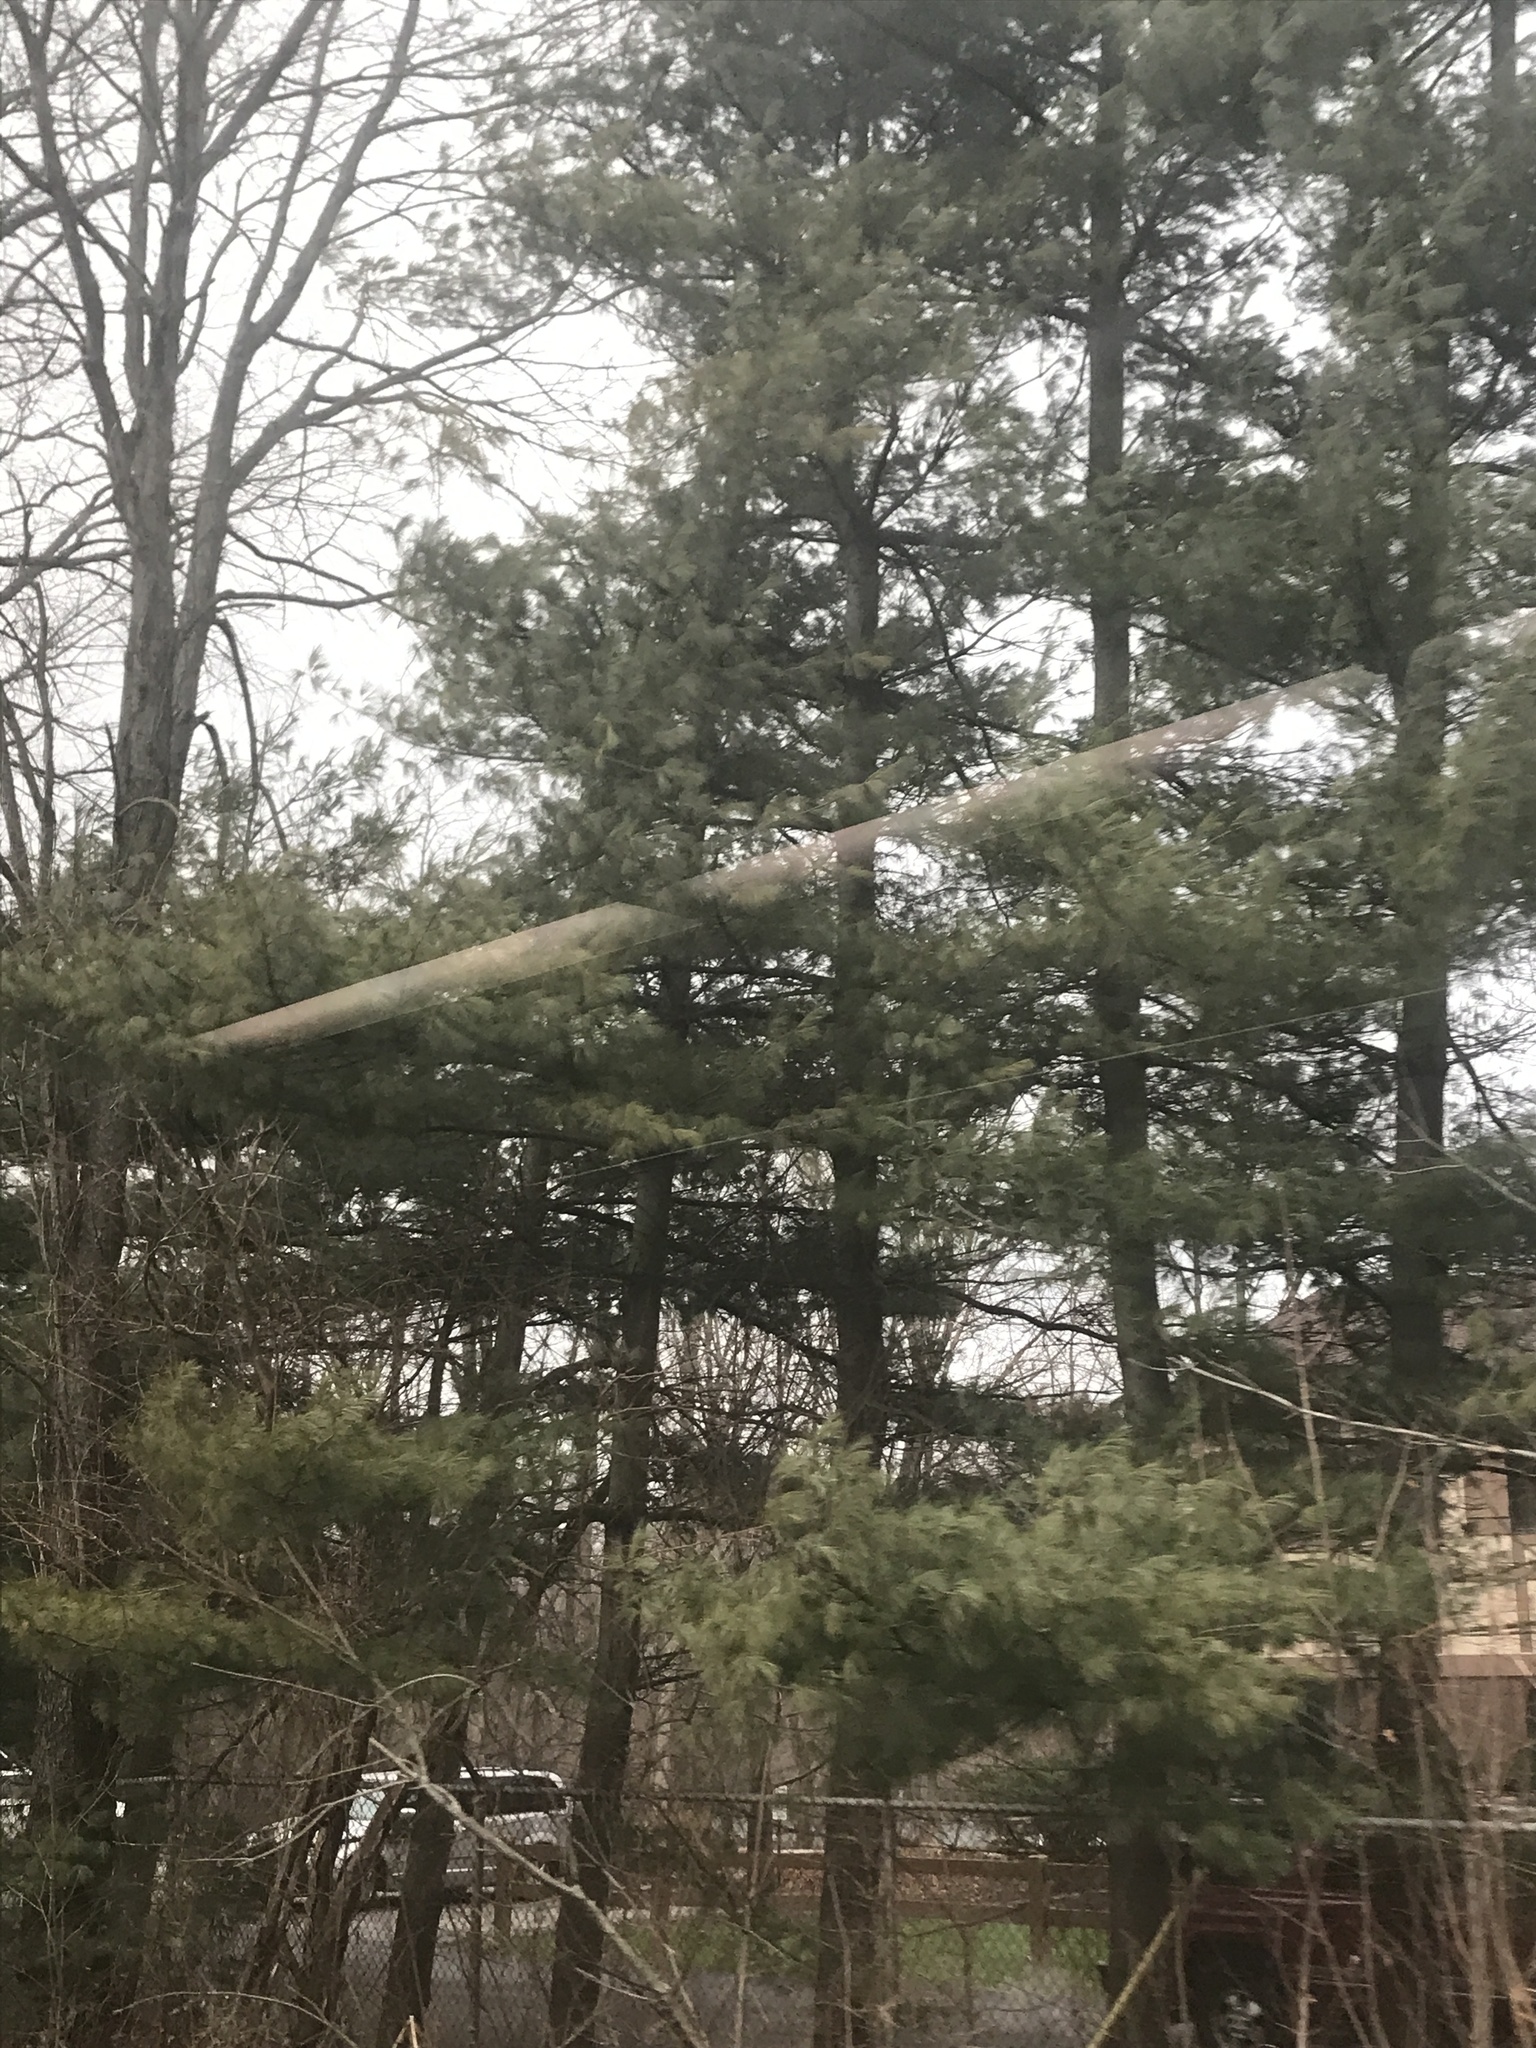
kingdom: Plantae
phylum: Tracheophyta
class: Pinopsida
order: Pinales
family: Pinaceae
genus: Pinus
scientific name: Pinus strobus
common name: Weymouth pine
